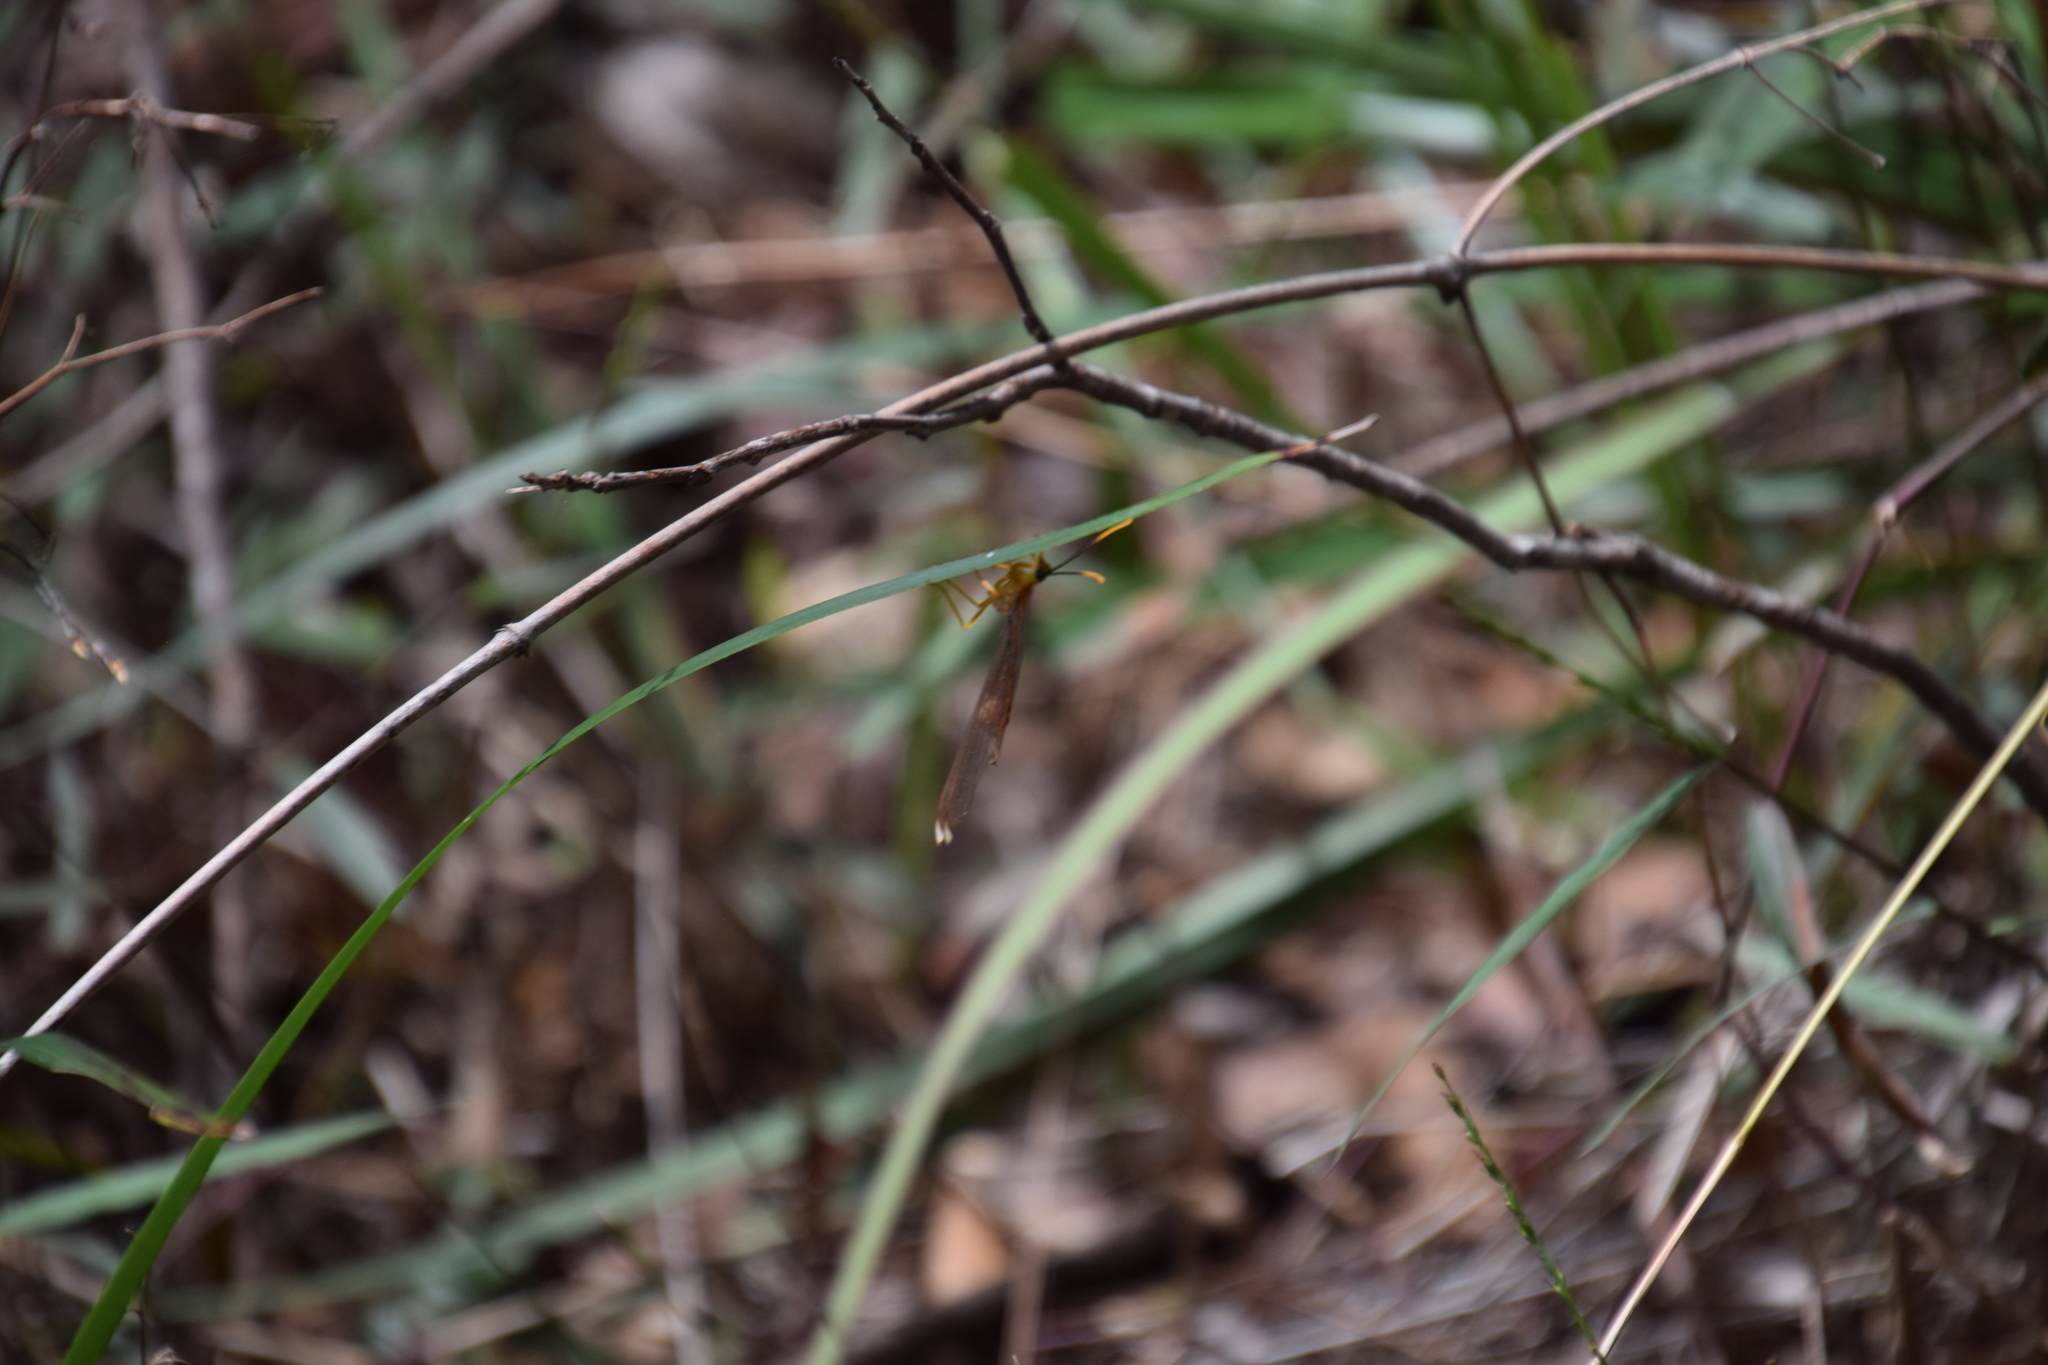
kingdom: Animalia
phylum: Arthropoda
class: Insecta
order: Neuroptera
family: Nymphidae
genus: Nymphes
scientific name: Nymphes myrmeleonoides
